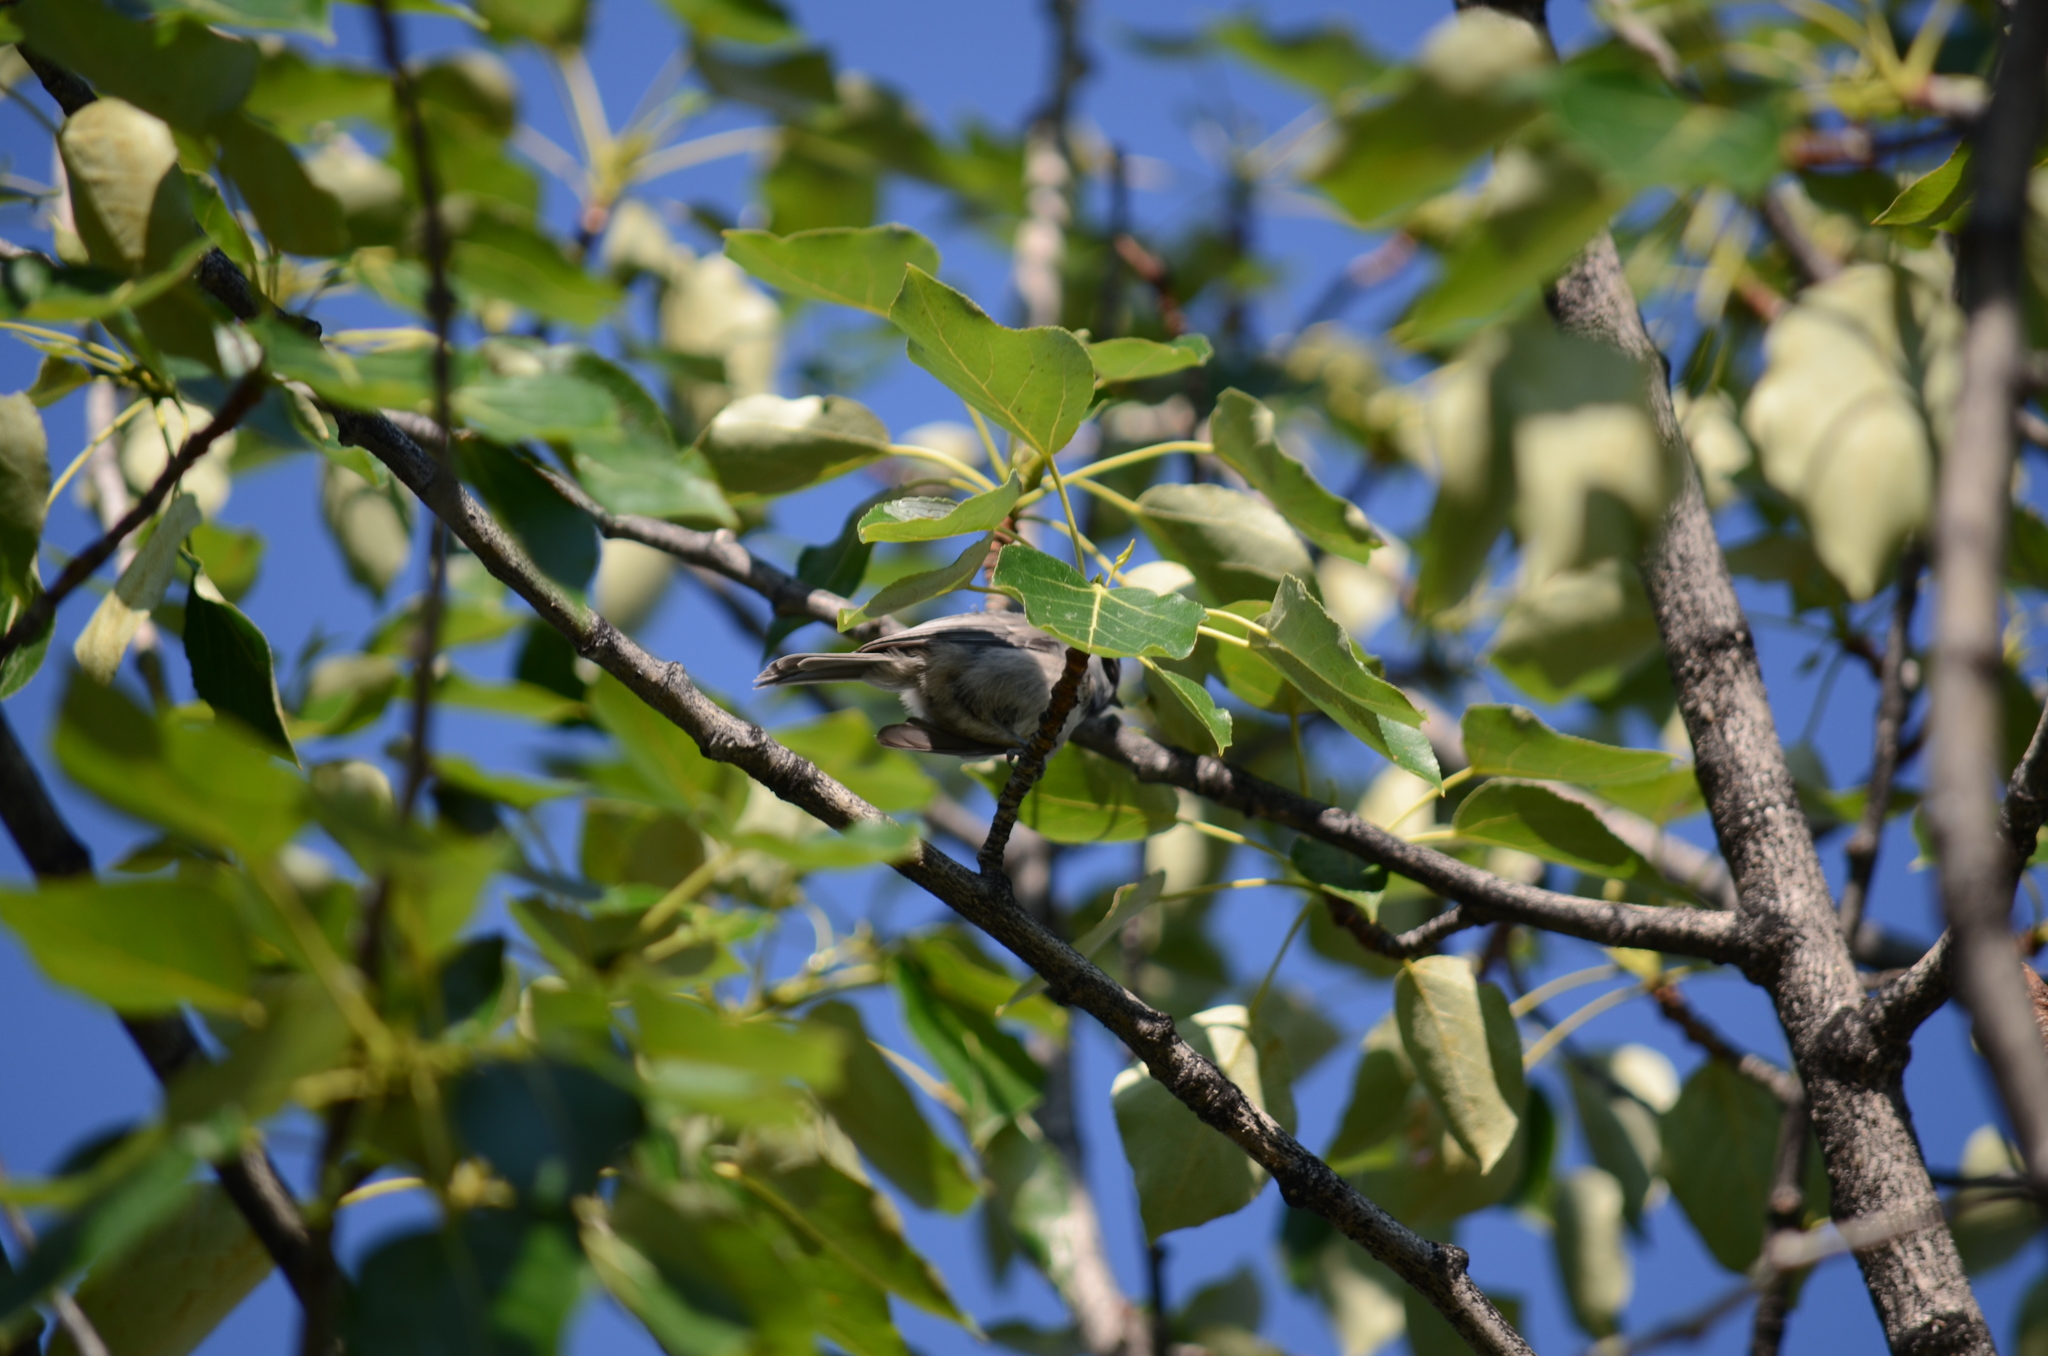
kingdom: Animalia
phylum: Chordata
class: Aves
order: Passeriformes
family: Paridae
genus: Poecile
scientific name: Poecile gambeli
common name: Mountain chickadee
